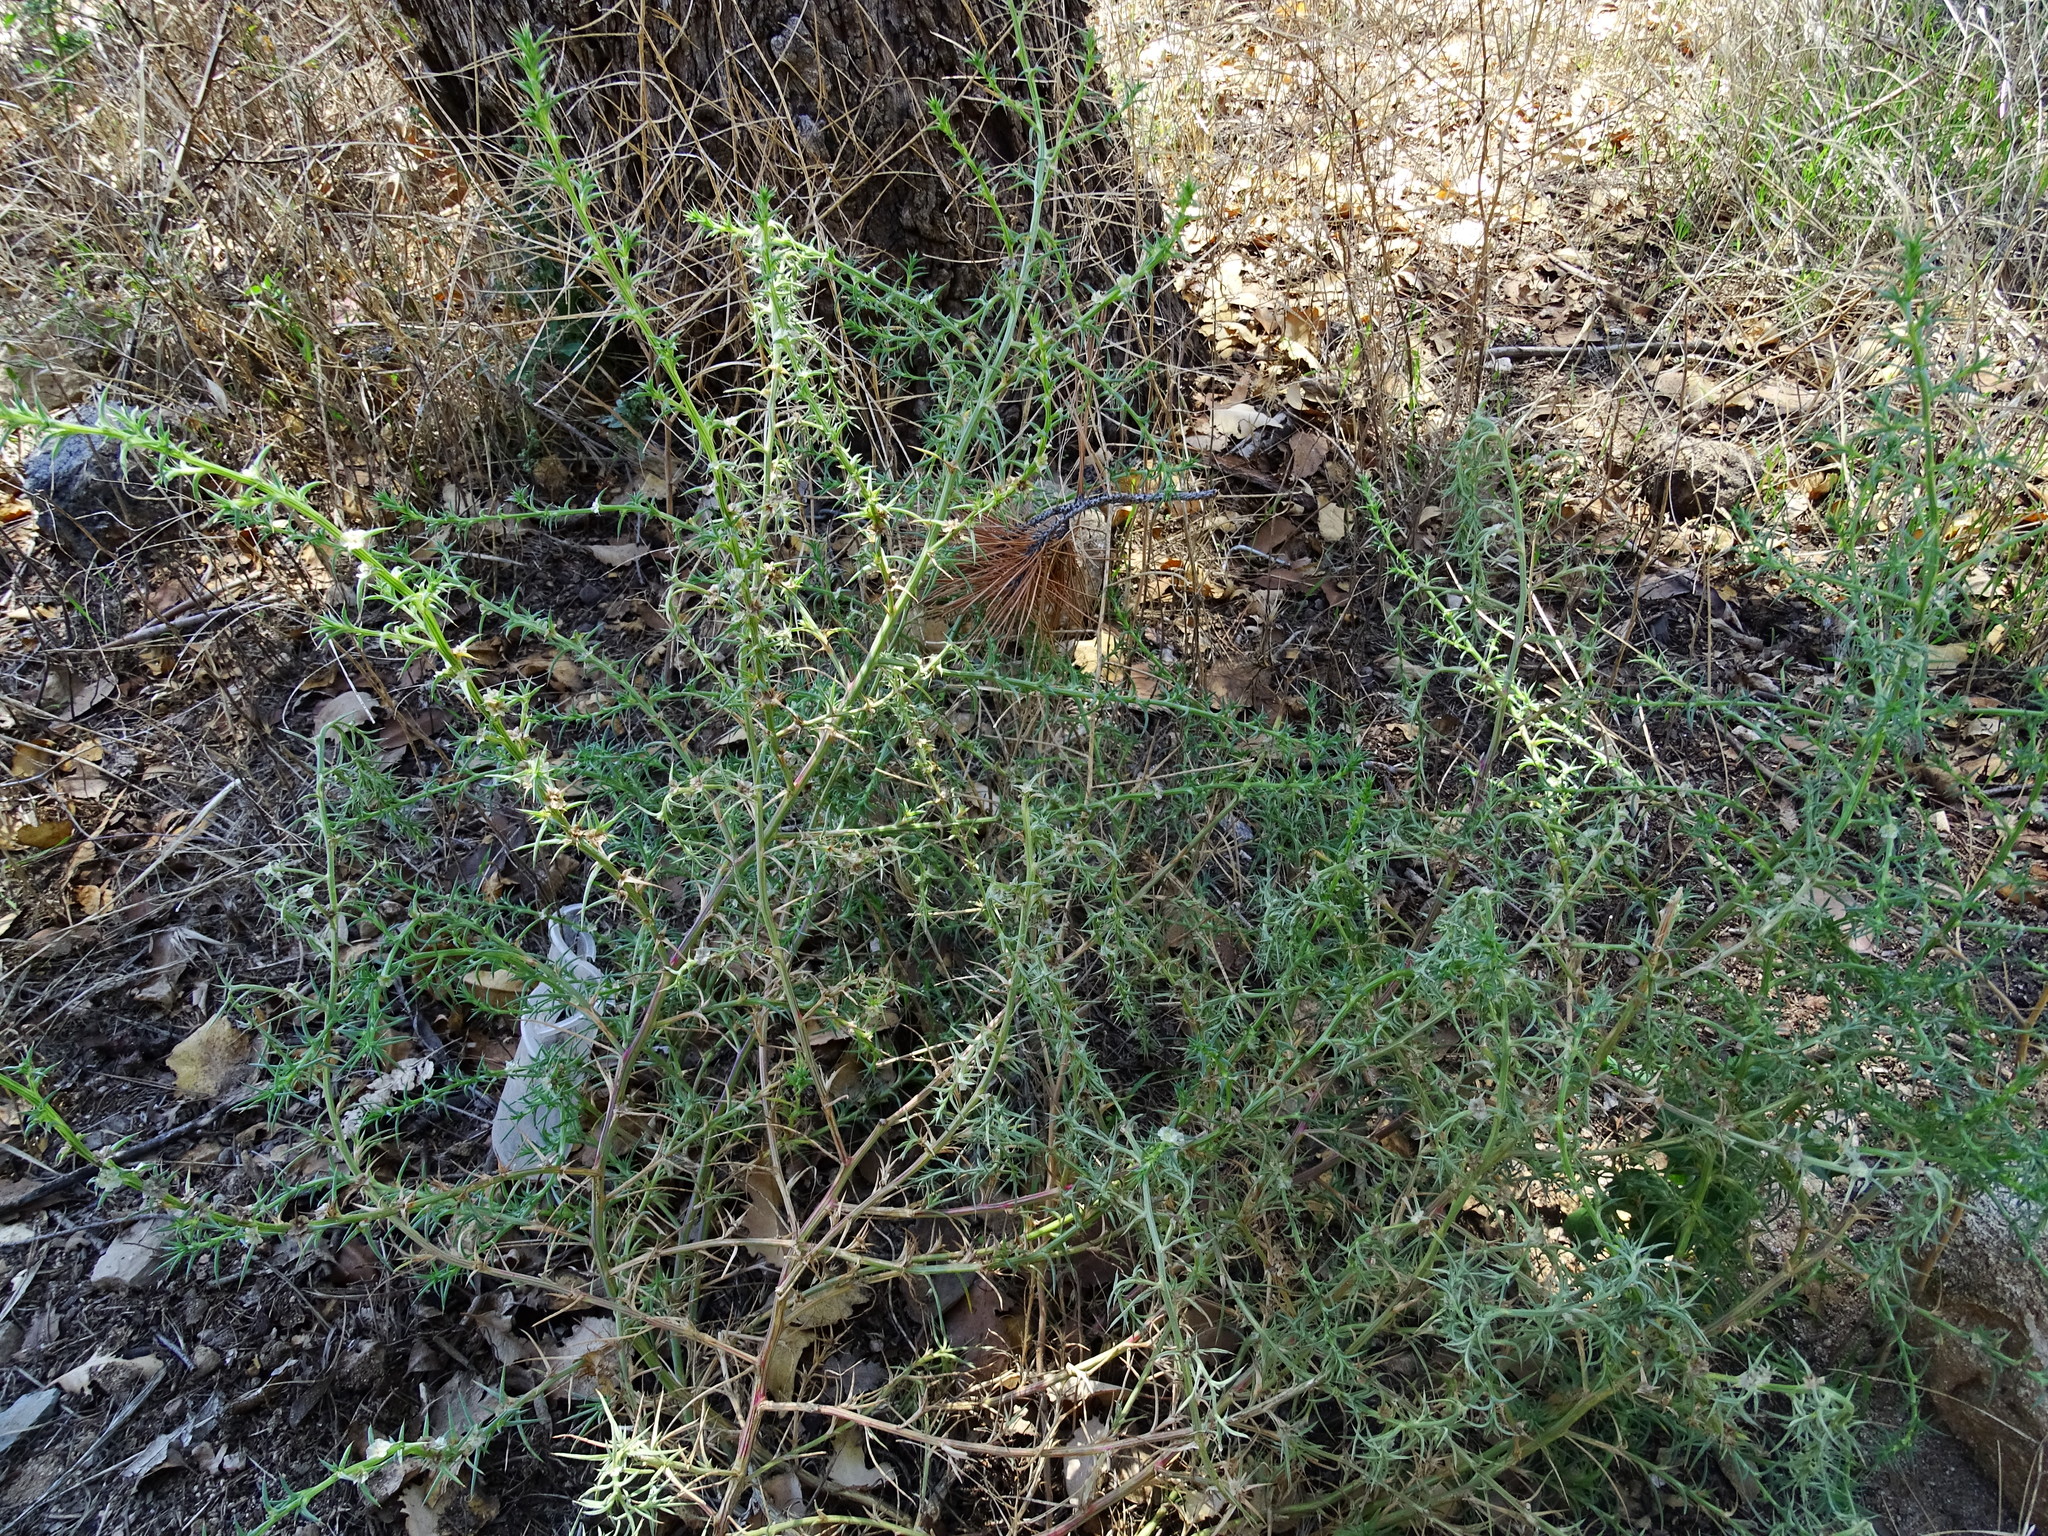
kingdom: Plantae
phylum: Tracheophyta
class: Magnoliopsida
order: Caryophyllales
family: Amaranthaceae
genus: Salsola
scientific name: Salsola australis
